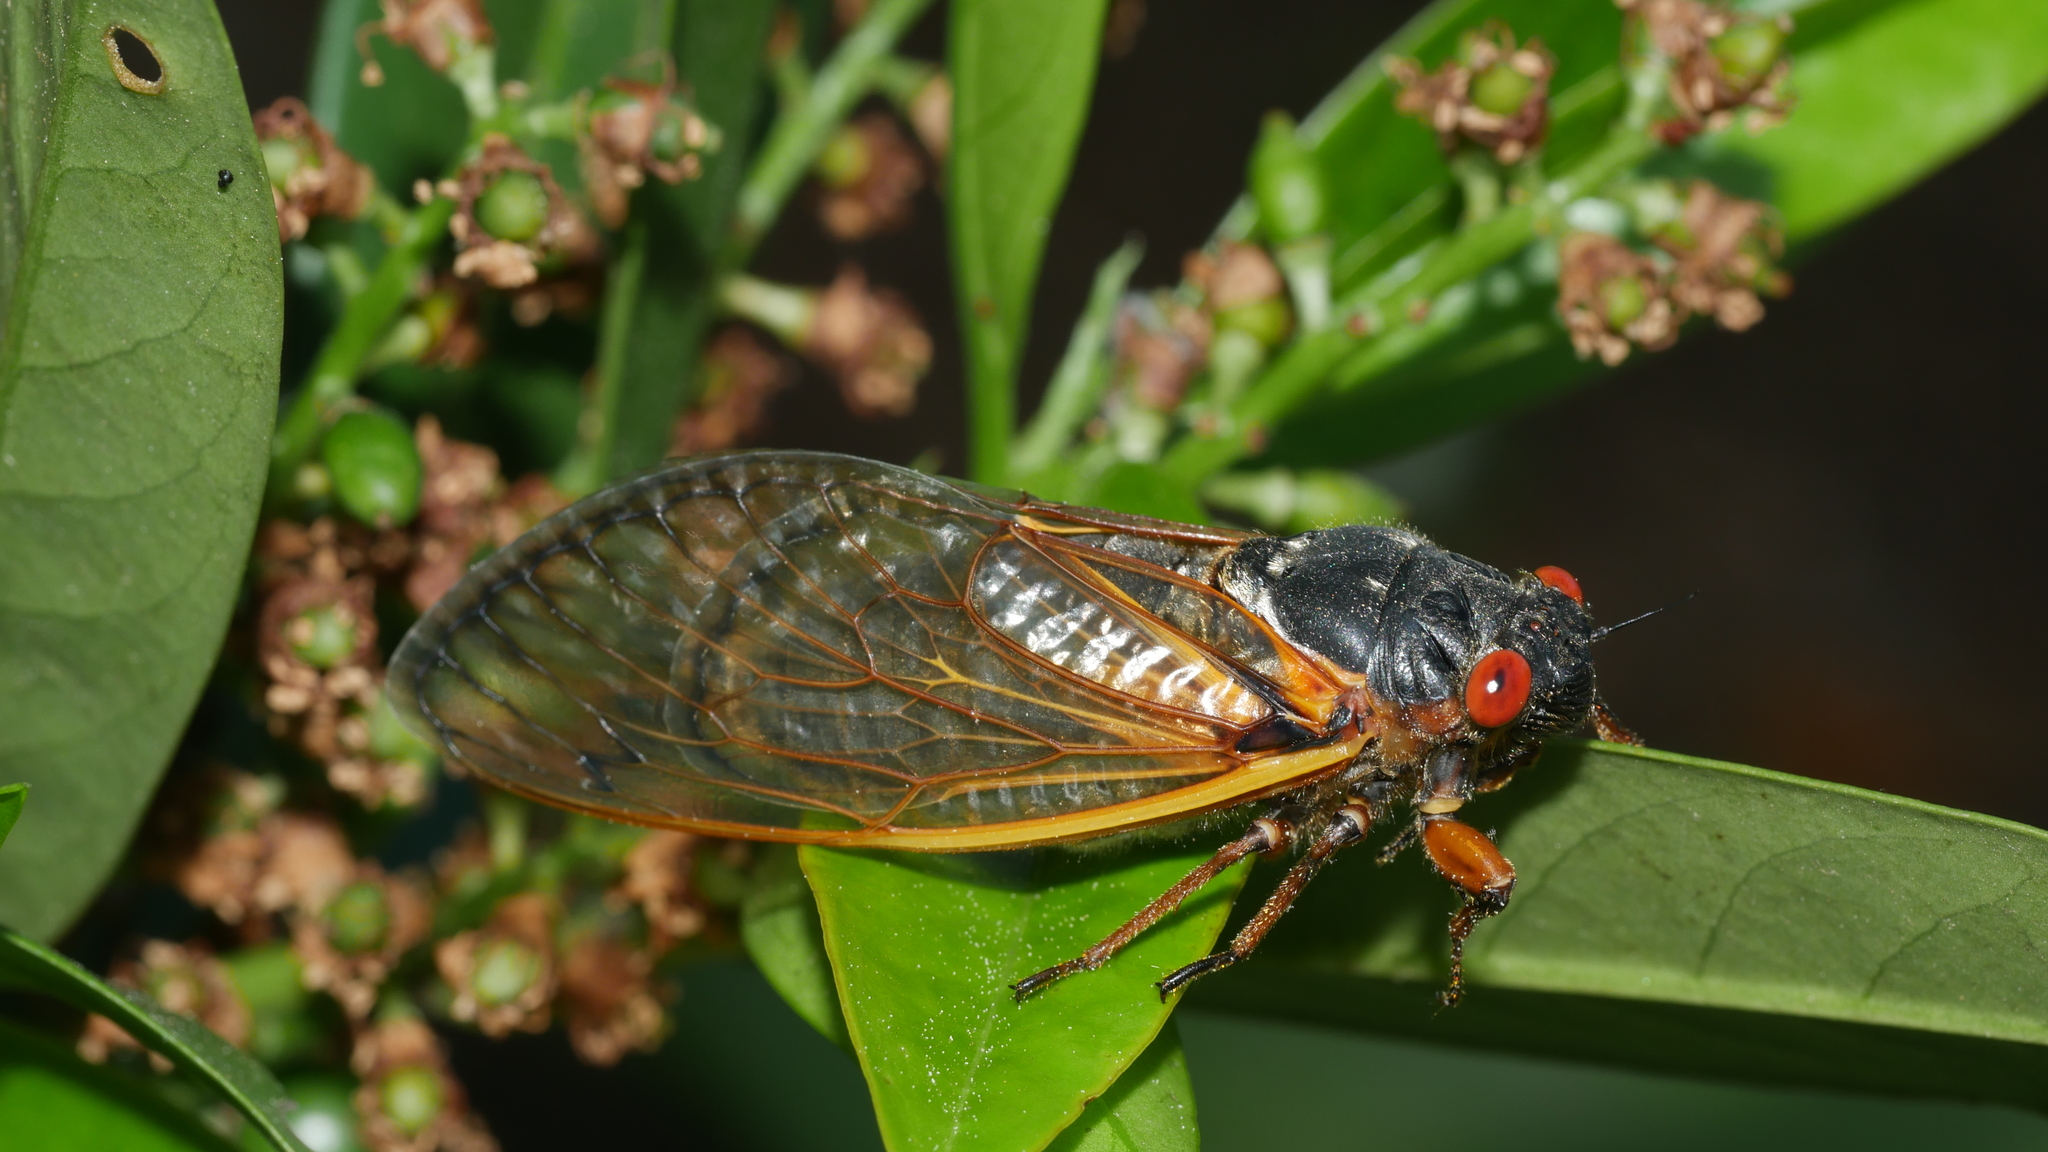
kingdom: Animalia
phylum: Arthropoda
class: Insecta
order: Hemiptera
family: Cicadidae
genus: Magicicada
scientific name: Magicicada septendecim
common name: Periodical cicada
